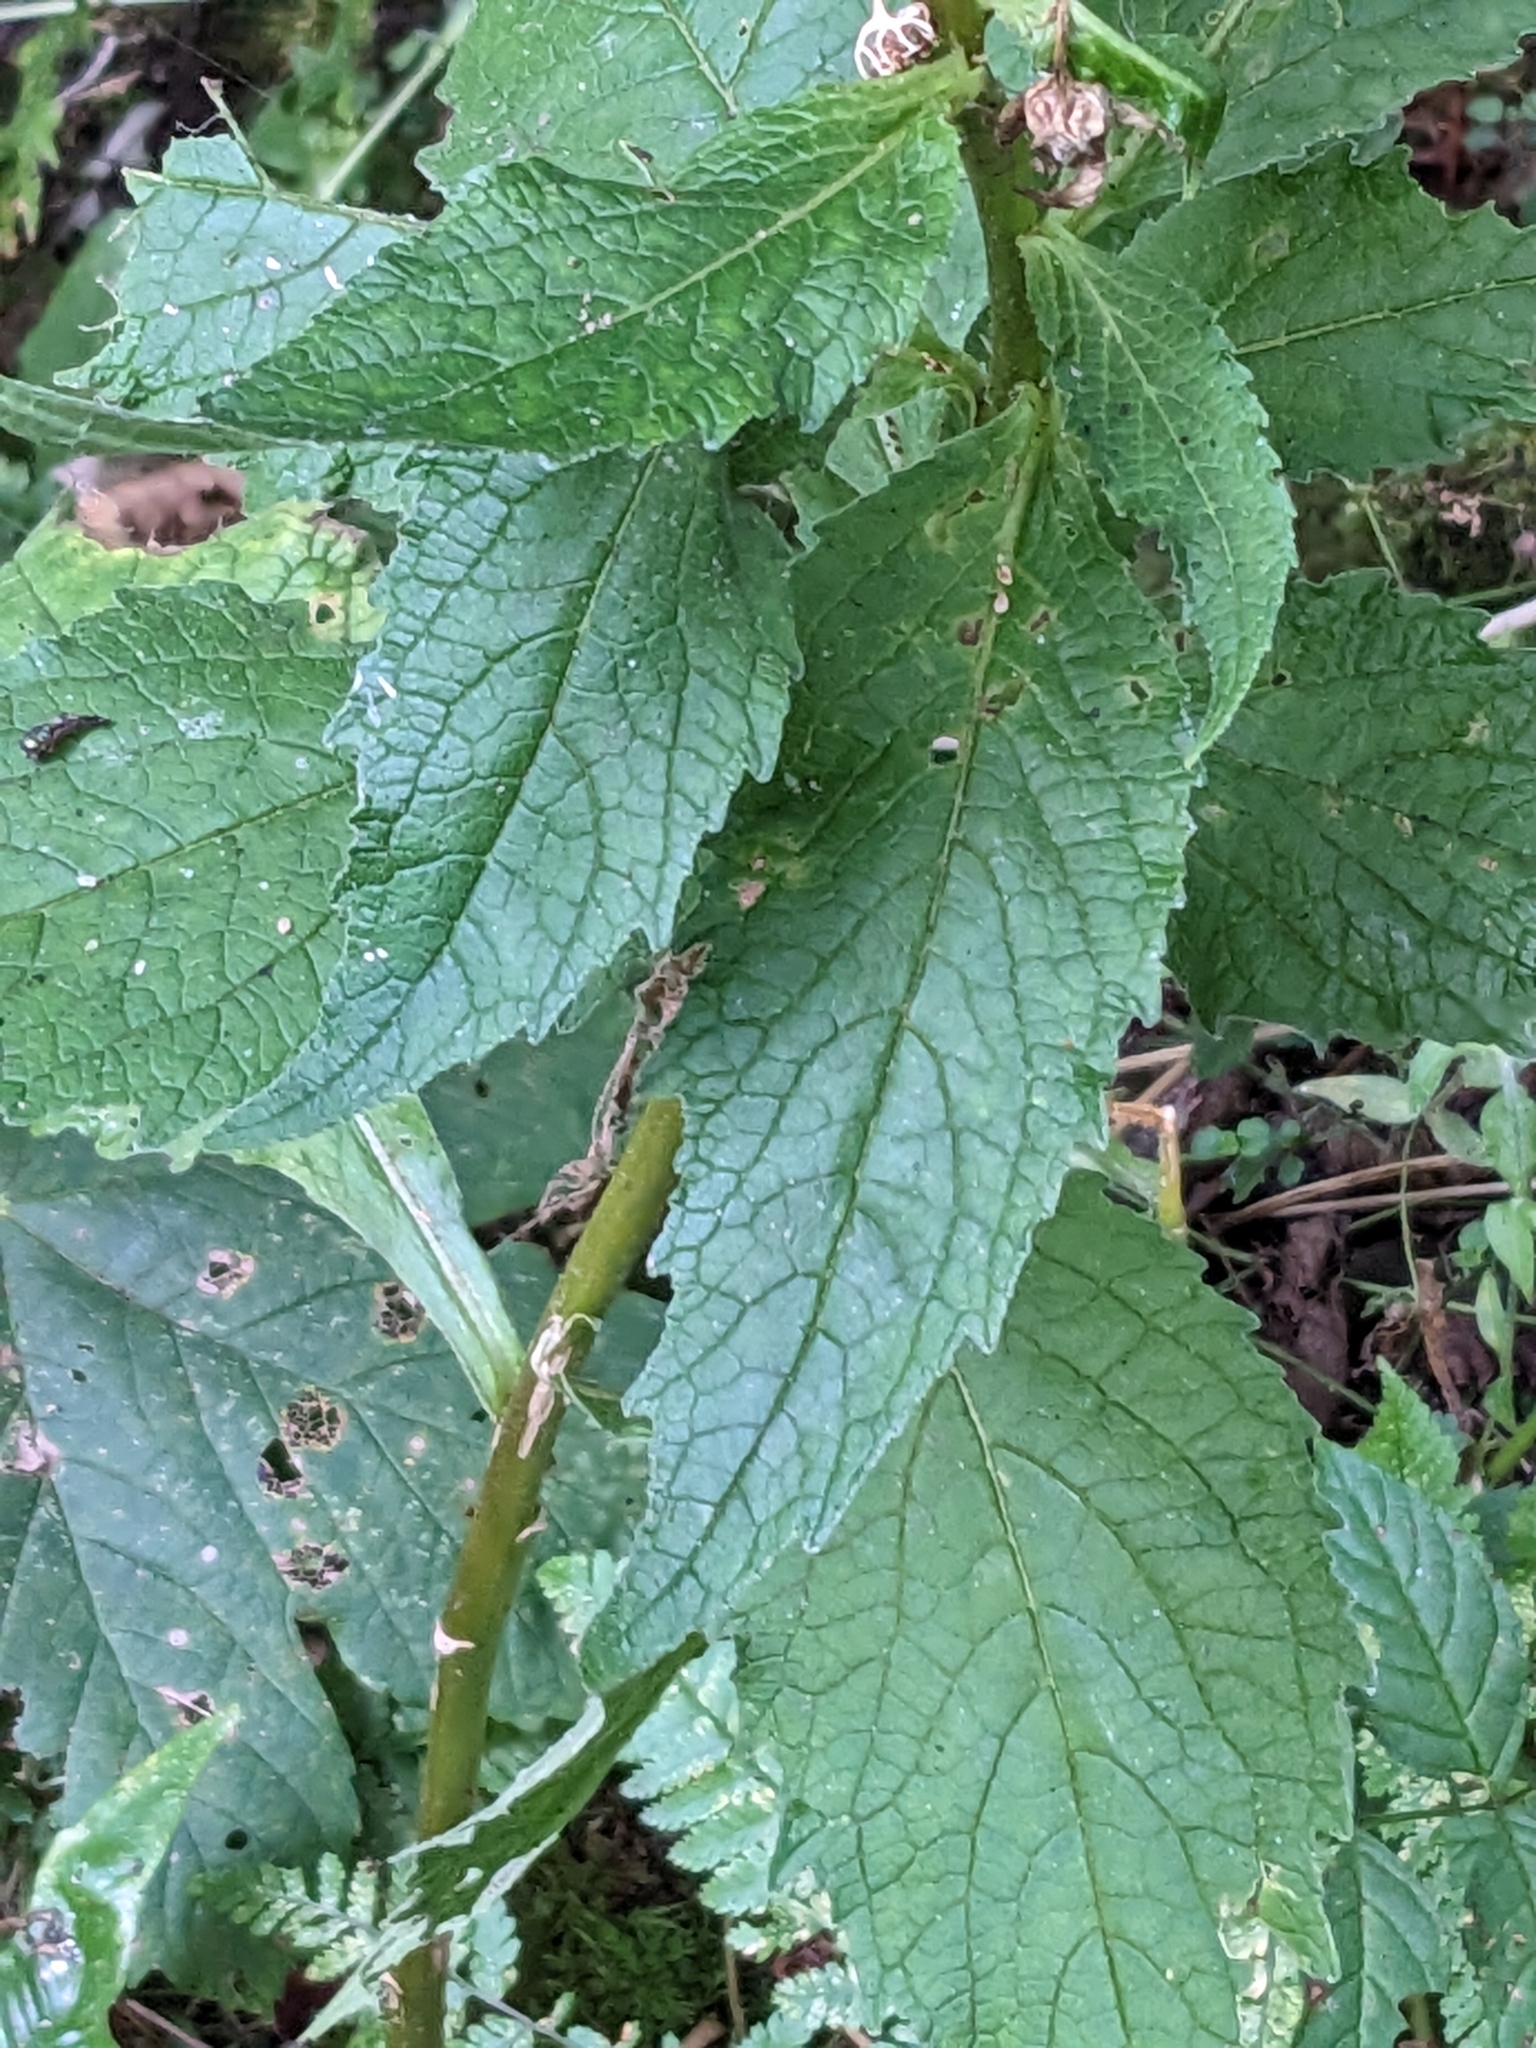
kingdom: Plantae
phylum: Tracheophyta
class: Magnoliopsida
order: Asterales
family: Campanulaceae
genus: Campanula
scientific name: Campanula latifolia
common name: Giant bellflower
